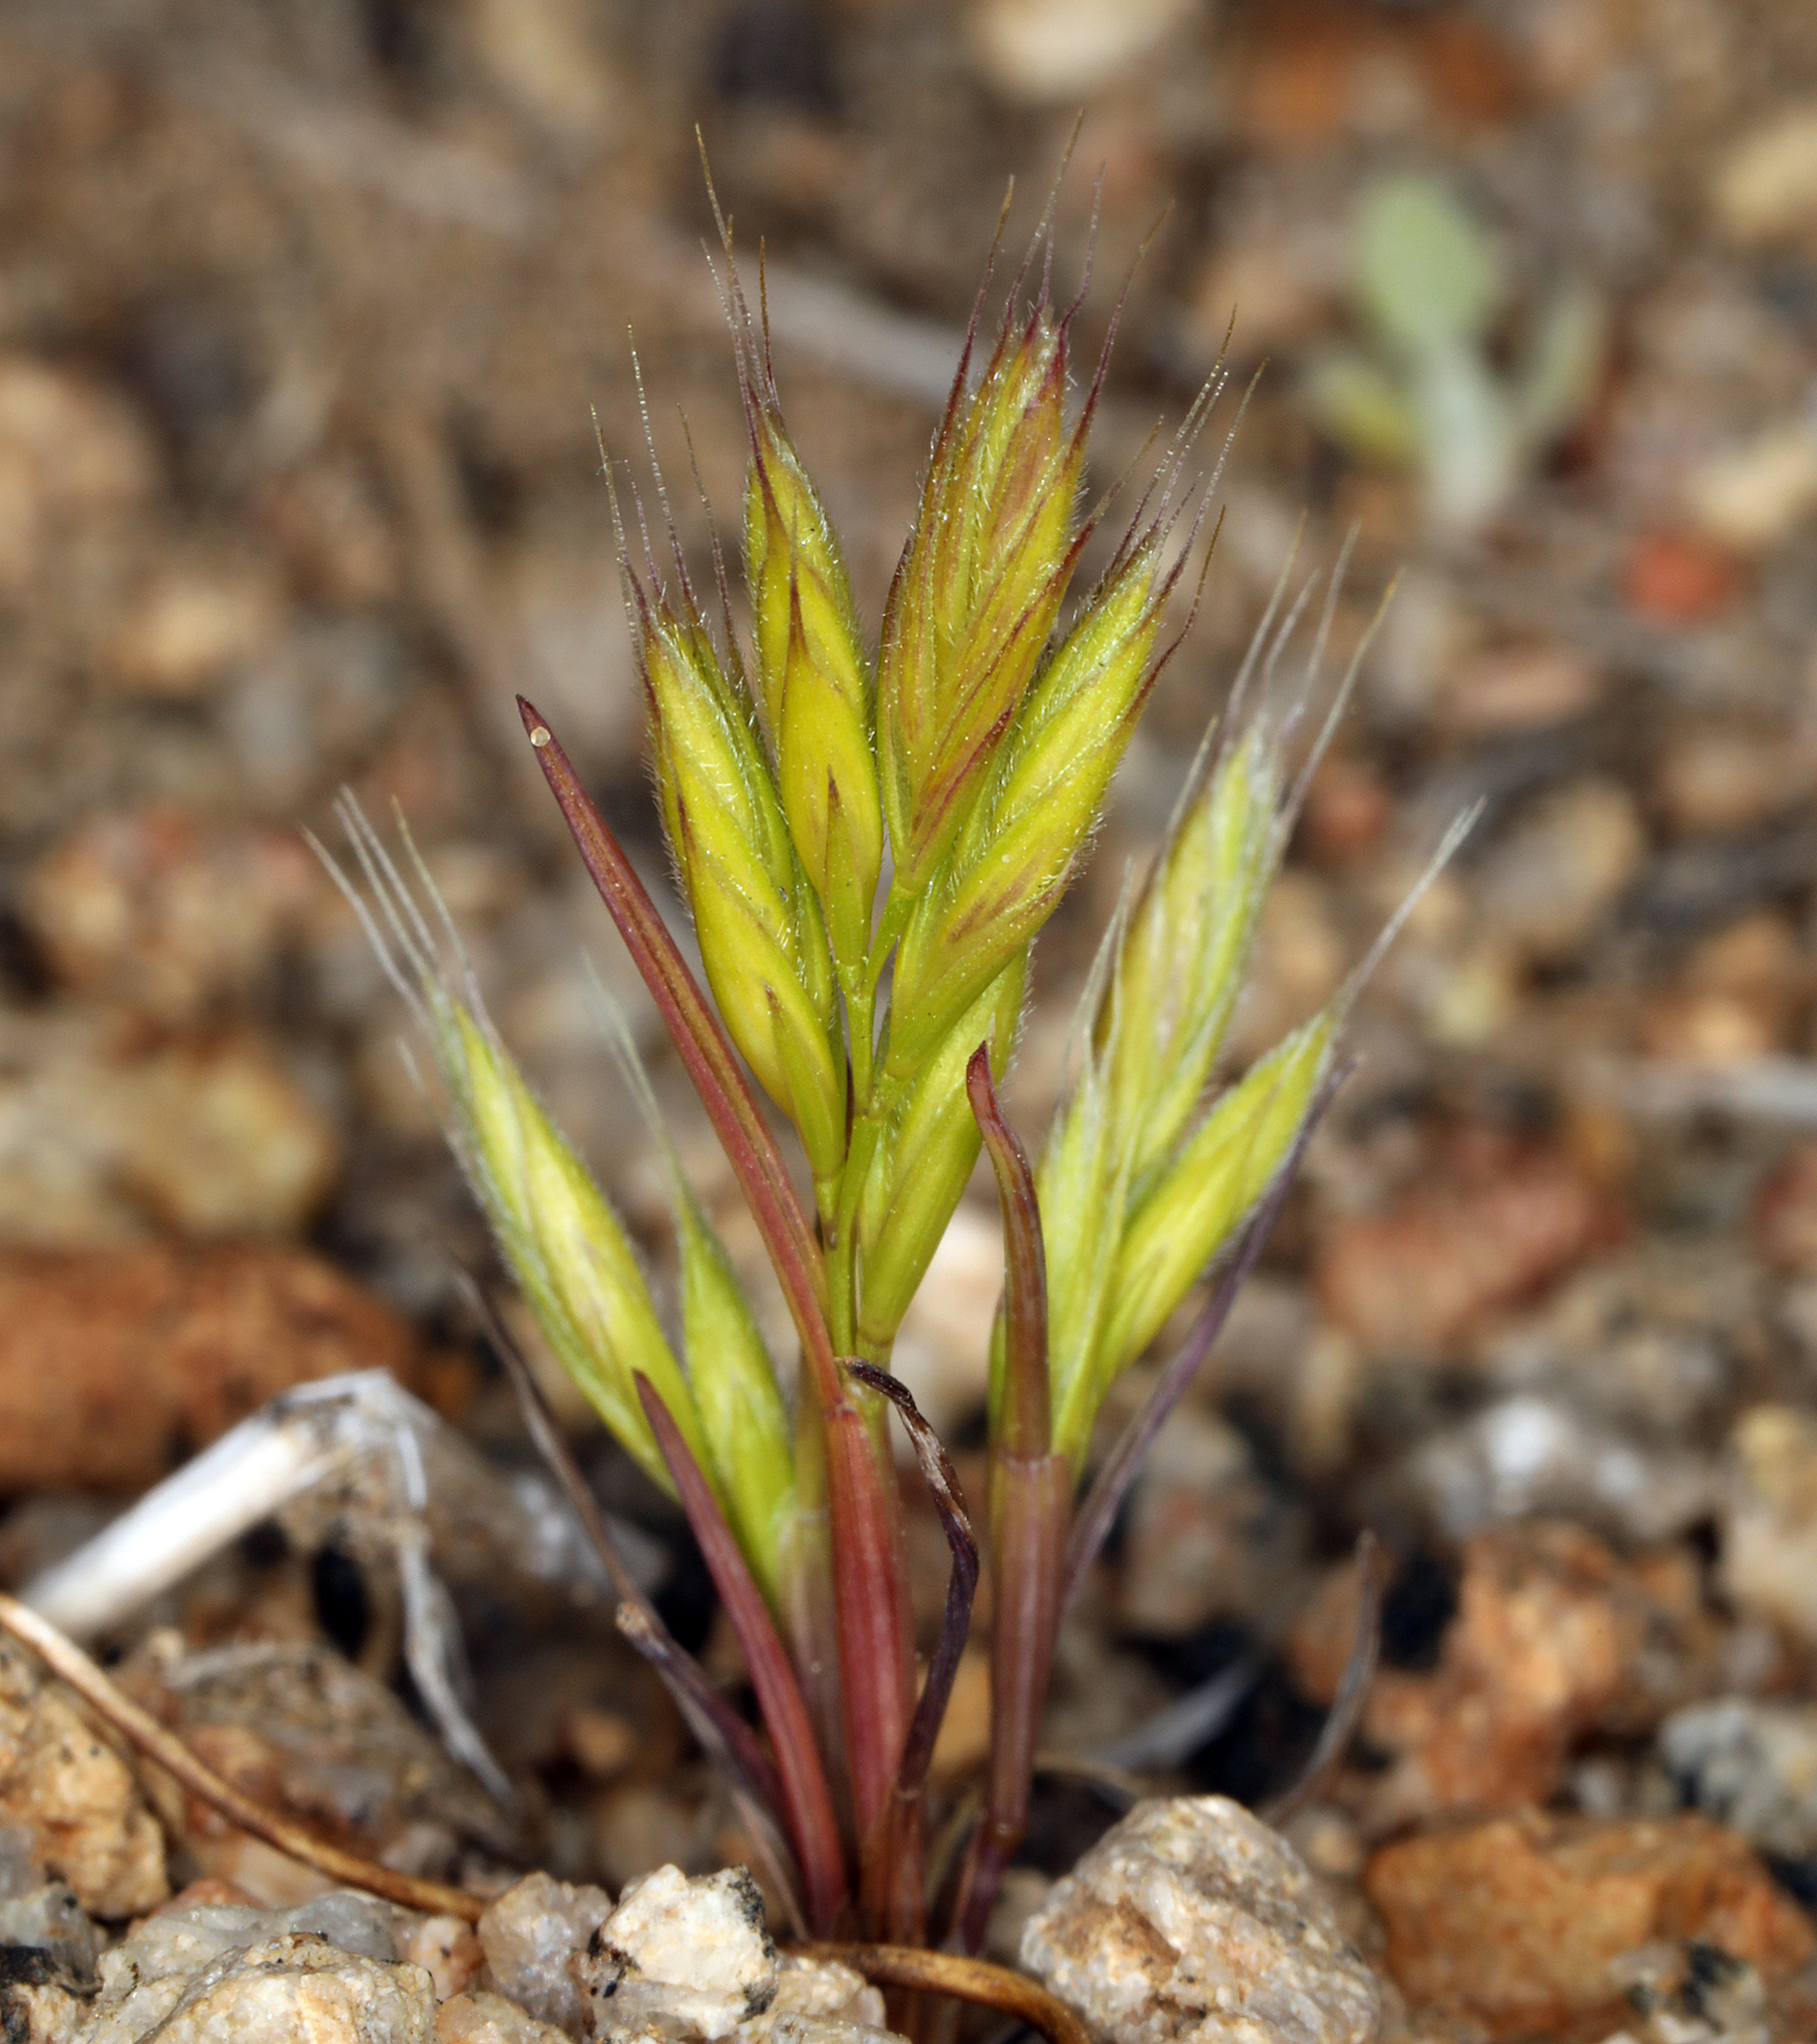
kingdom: Plantae
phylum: Tracheophyta
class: Liliopsida
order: Poales
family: Poaceae
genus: Festuca
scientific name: Festuca octoflora
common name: Sixweeks grass
